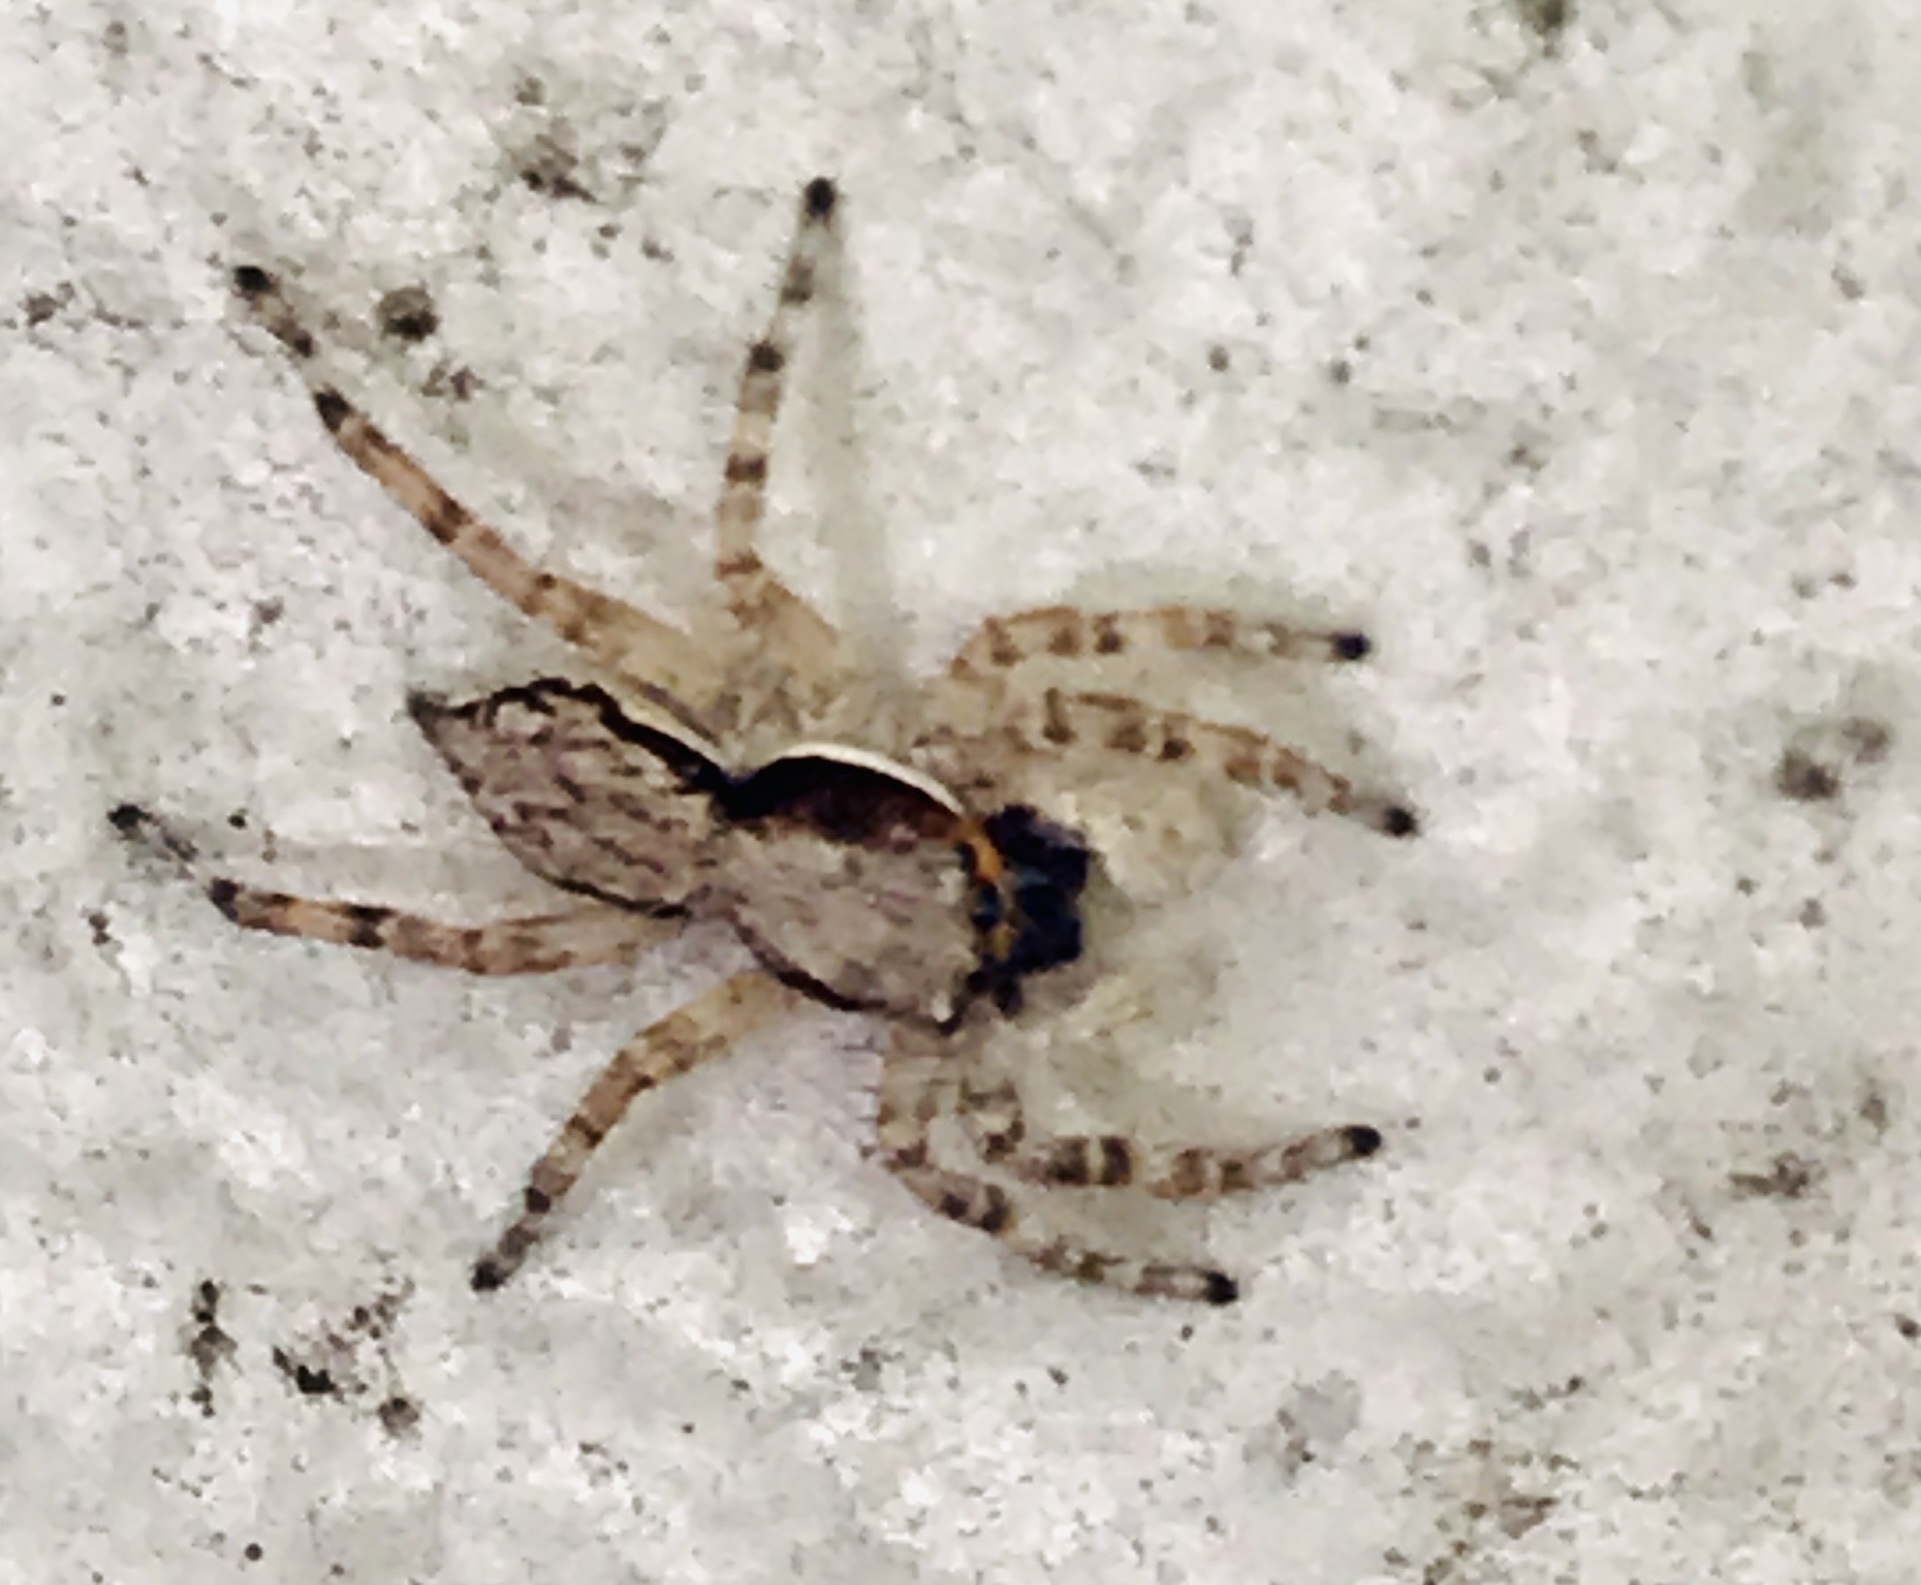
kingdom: Animalia
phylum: Arthropoda
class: Arachnida
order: Araneae
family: Salticidae
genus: Menemerus
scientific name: Menemerus bivittatus
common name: Gray wall jumper
